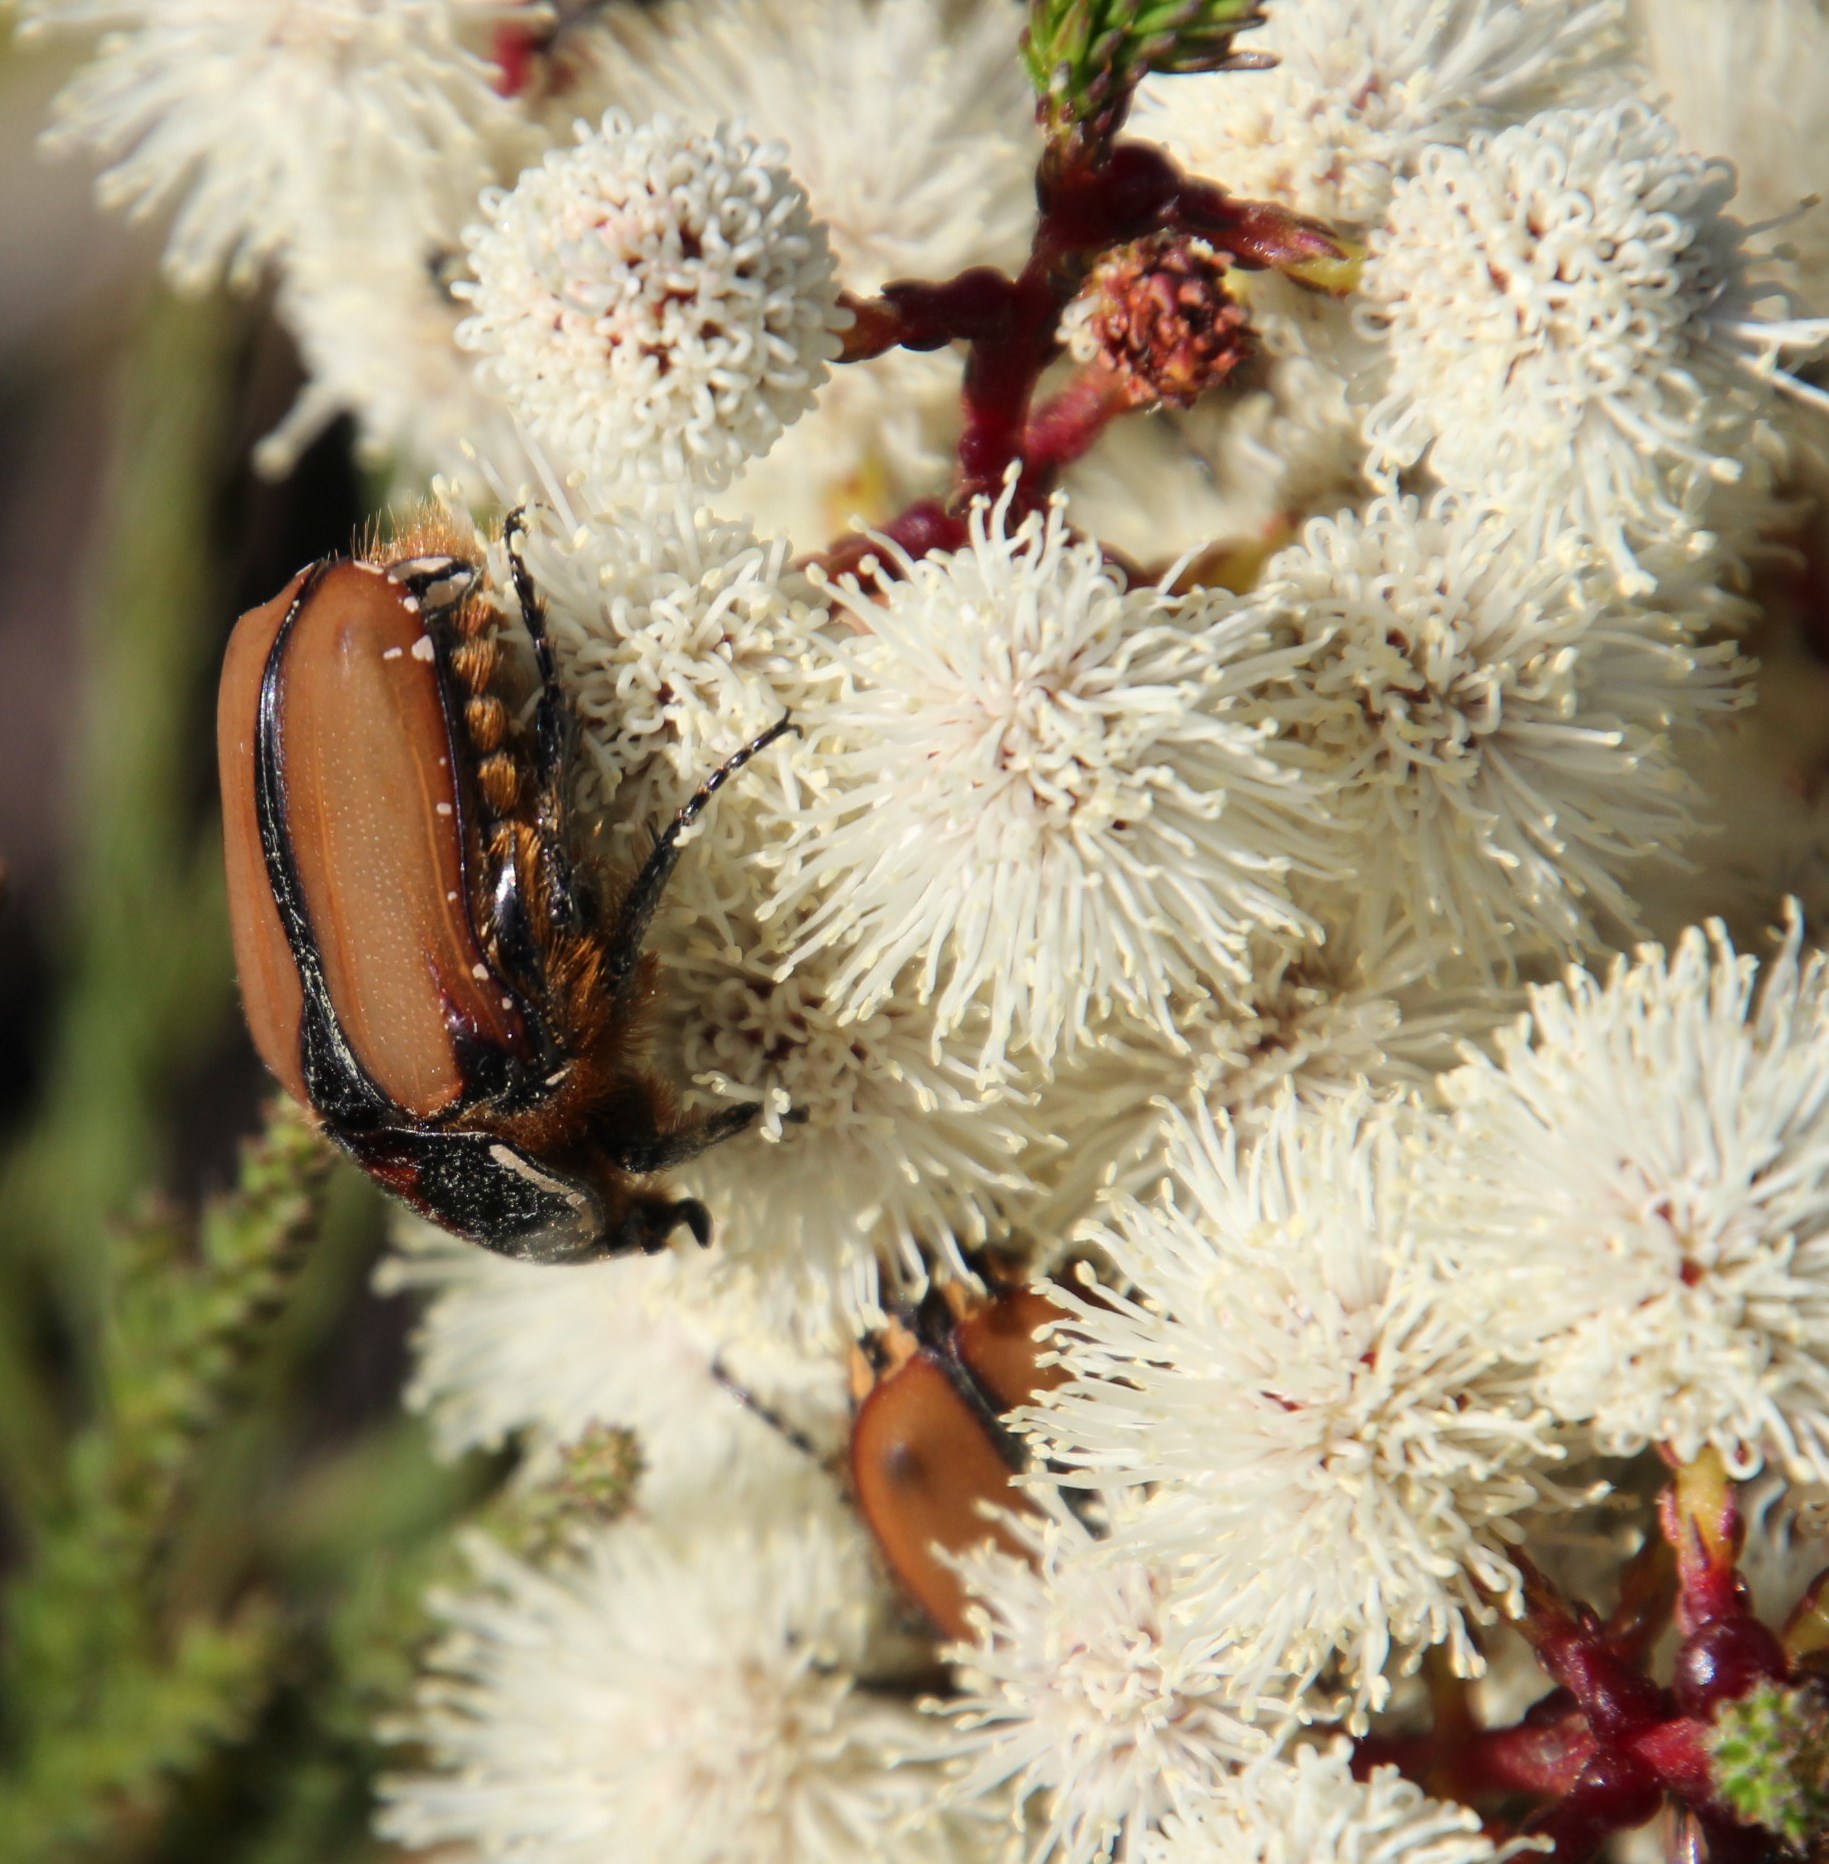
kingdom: Plantae
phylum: Tracheophyta
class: Magnoliopsida
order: Bruniales
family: Bruniaceae
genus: Berzelia
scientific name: Berzelia intermedia
